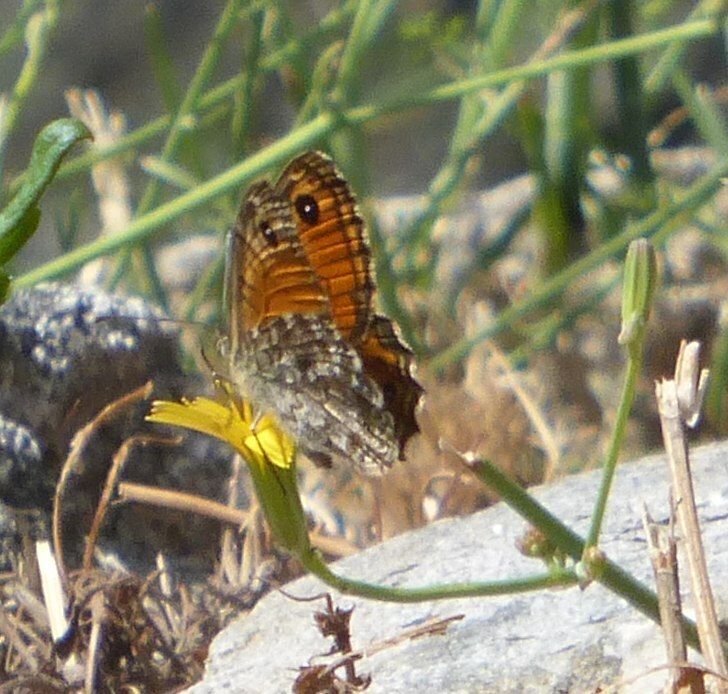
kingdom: Animalia
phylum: Arthropoda
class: Insecta
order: Lepidoptera
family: Nymphalidae
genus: Pararge
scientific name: Pararge Lasiommata paramegaera
